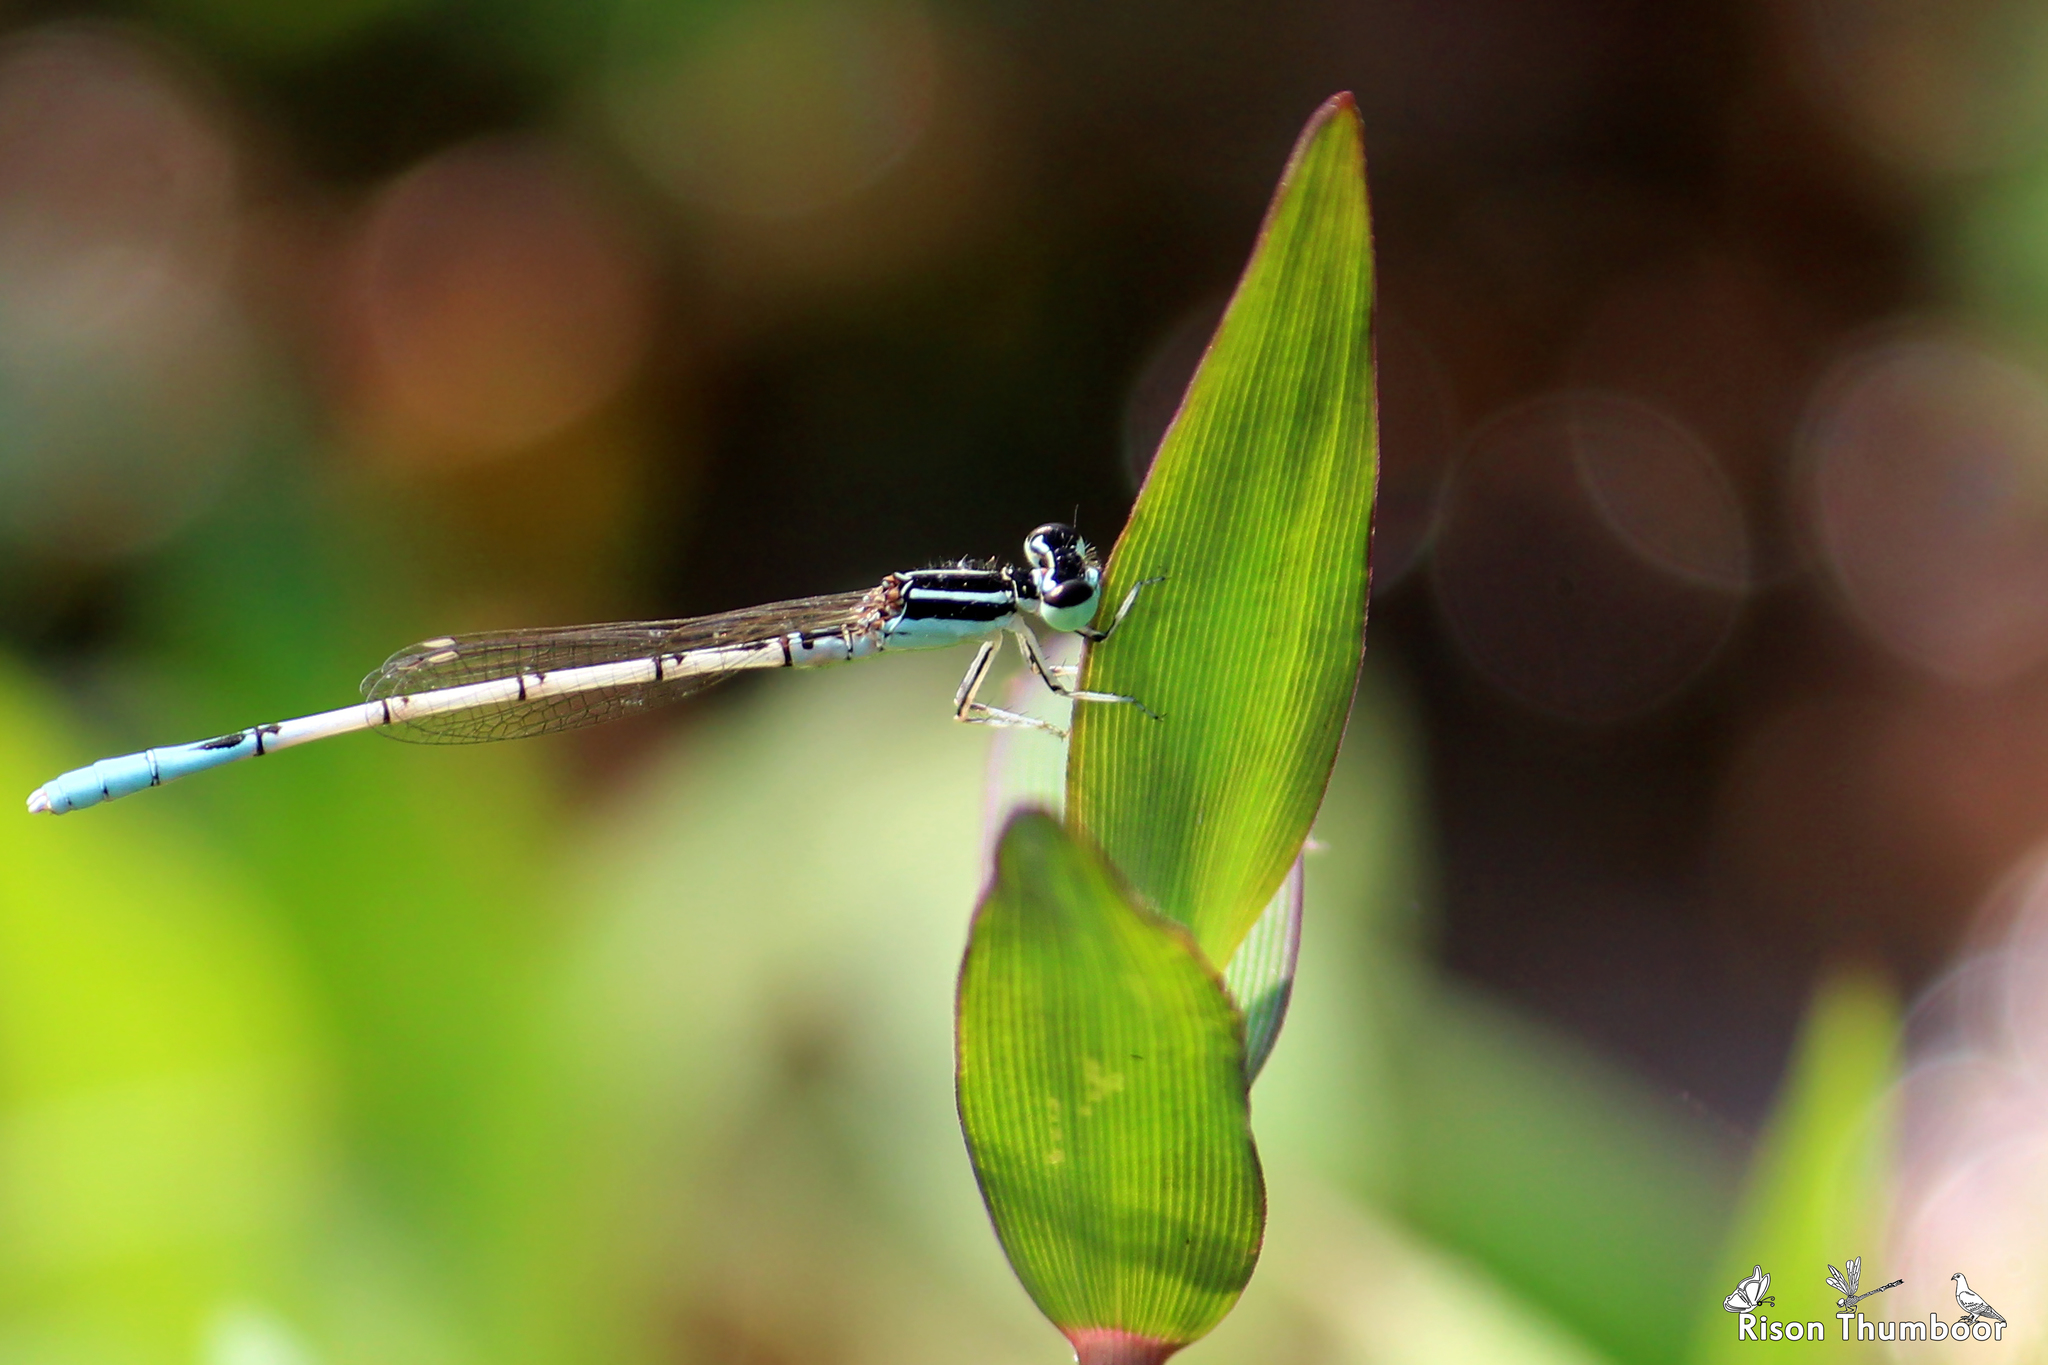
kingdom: Animalia
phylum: Arthropoda
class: Insecta
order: Odonata
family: Coenagrionidae
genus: Agriocnemis
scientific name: Agriocnemis pieris
